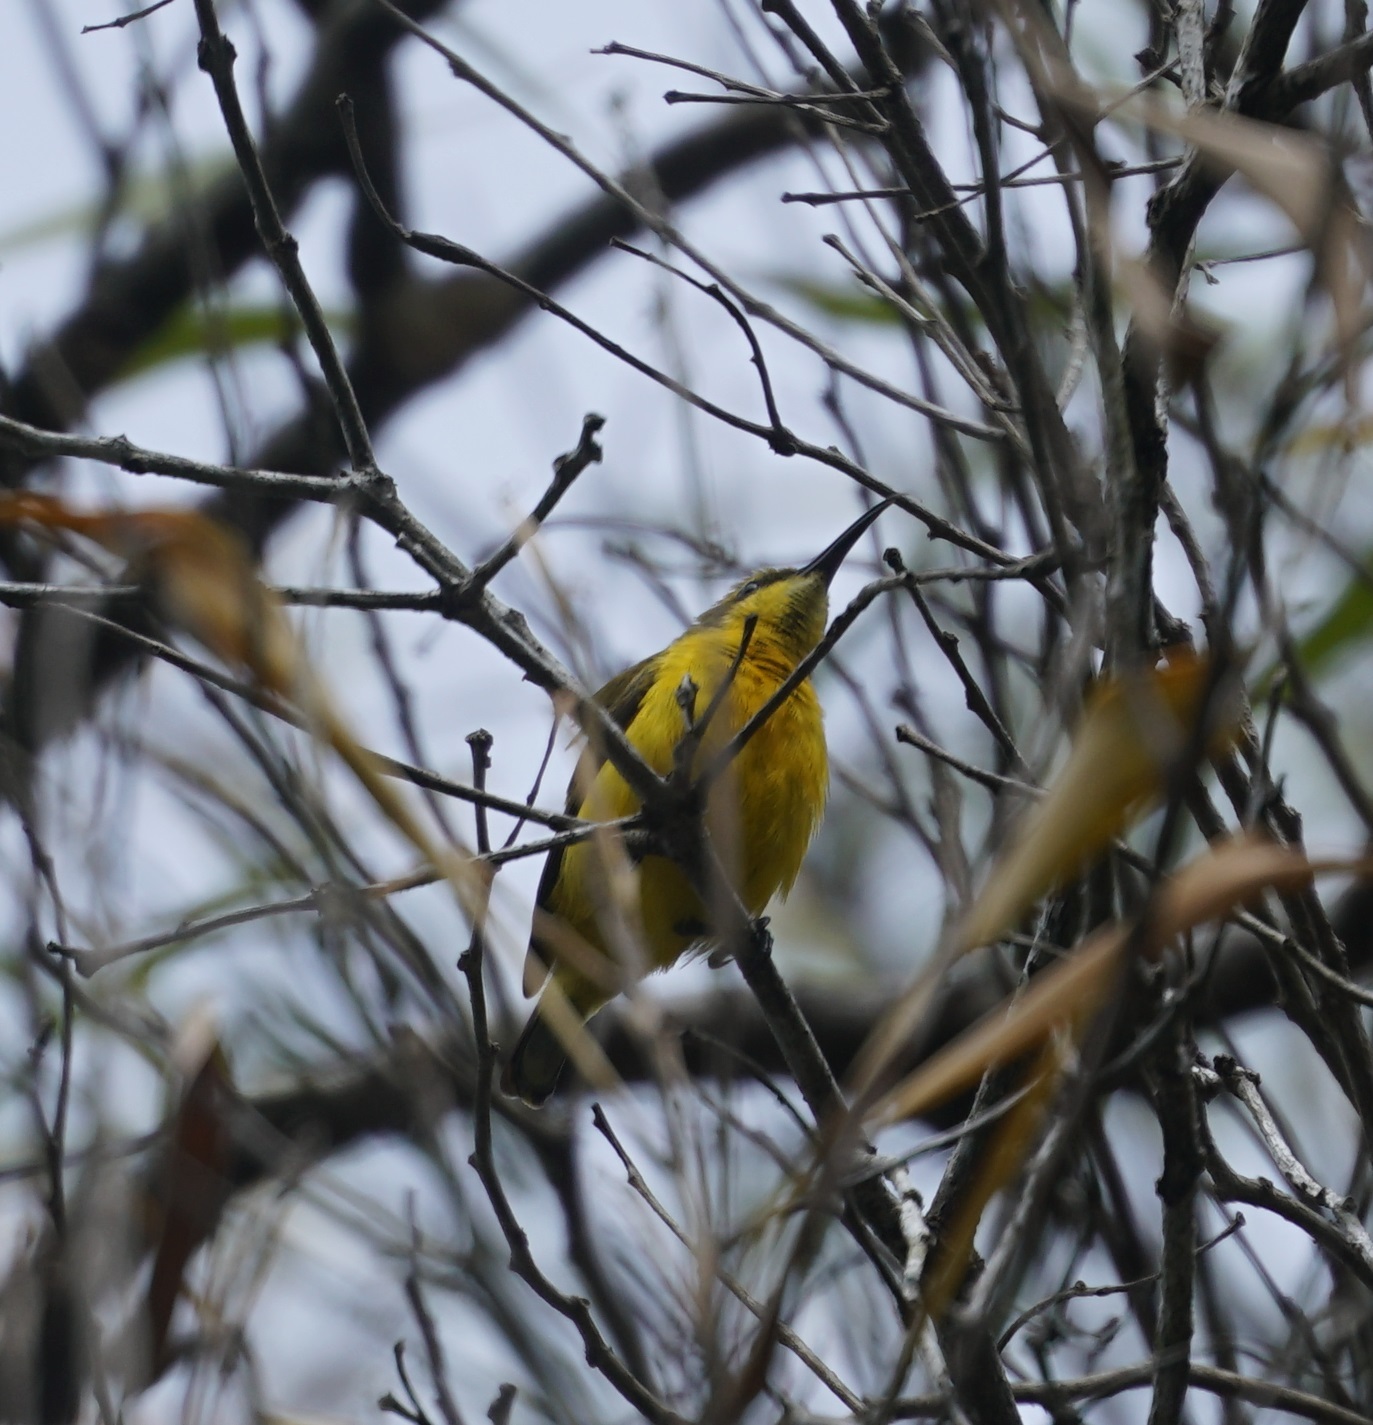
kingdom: Animalia
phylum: Chordata
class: Aves
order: Passeriformes
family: Nectariniidae
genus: Cinnyris
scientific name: Cinnyris
